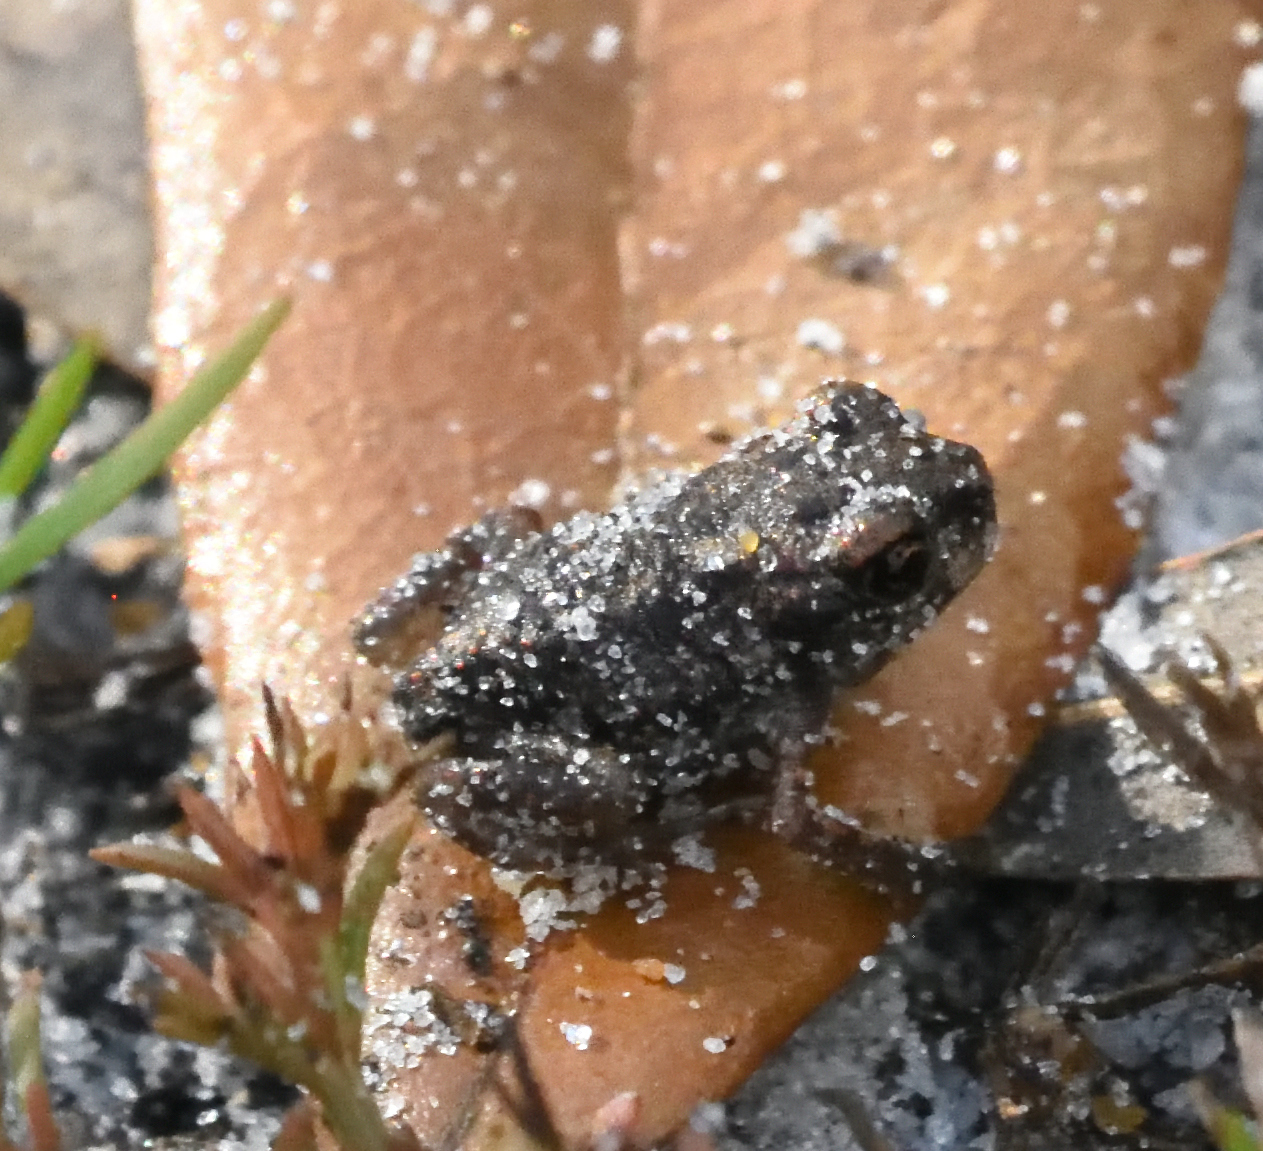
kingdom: Animalia
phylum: Chordata
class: Amphibia
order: Anura
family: Scaphiopodidae
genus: Scaphiopus
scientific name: Scaphiopus holbrookii
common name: Eastern spadefoot toad
